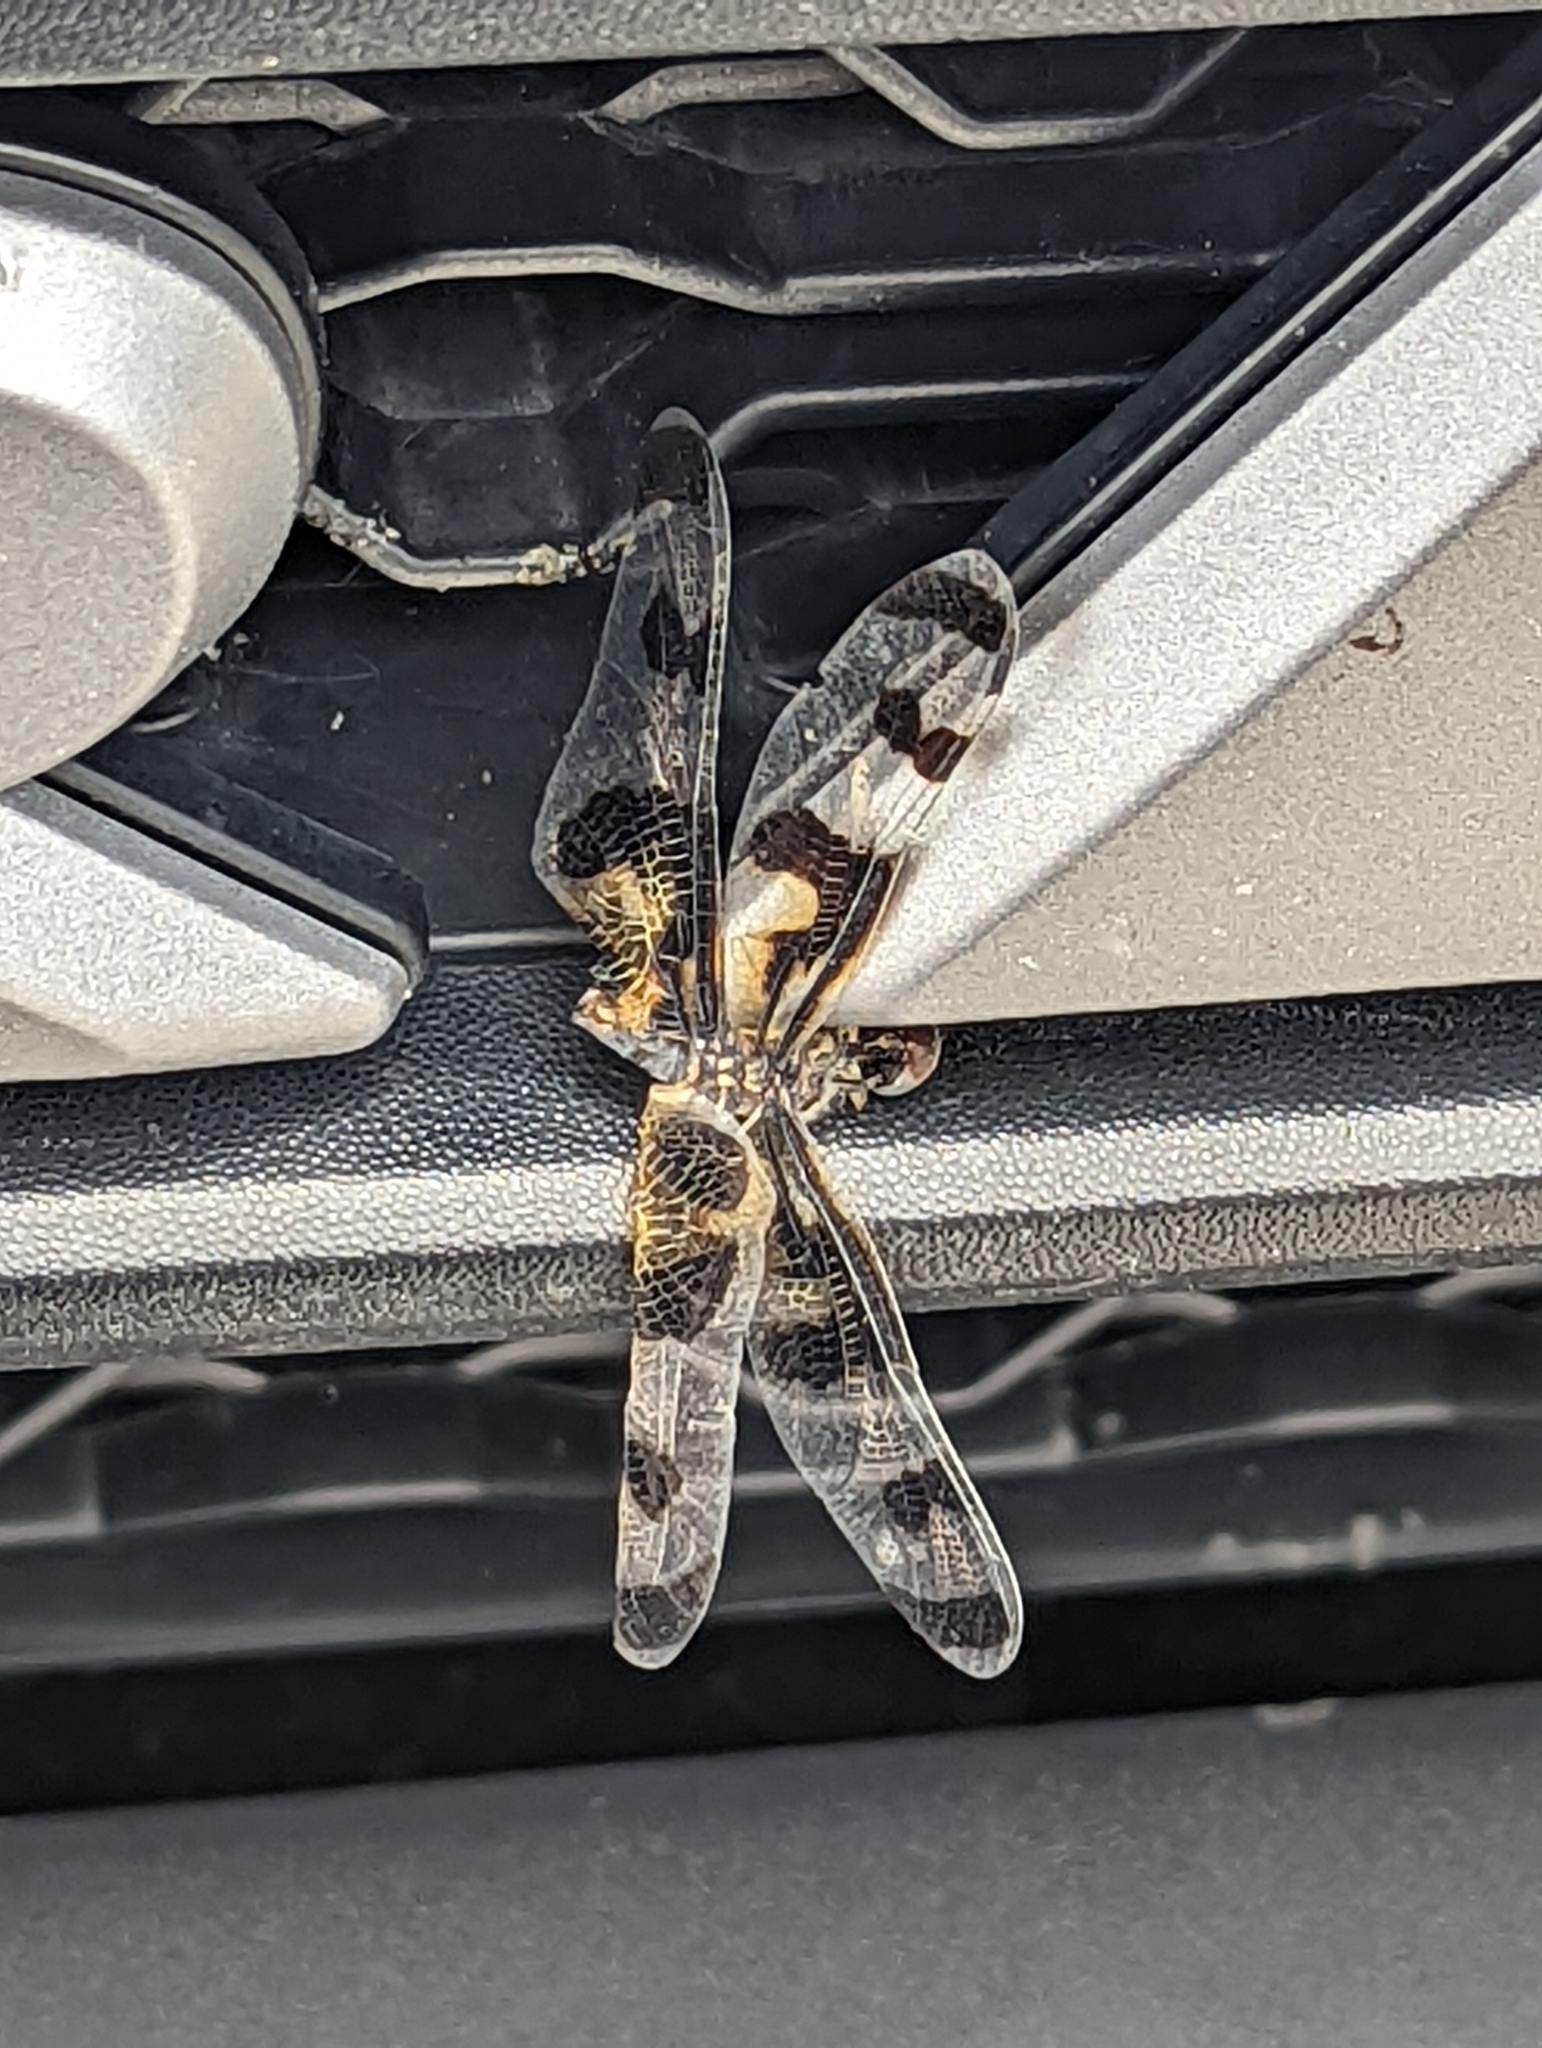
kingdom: Animalia
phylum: Arthropoda
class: Insecta
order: Odonata
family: Libellulidae
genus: Celithemis
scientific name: Celithemis fasciata
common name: Banded pennant
